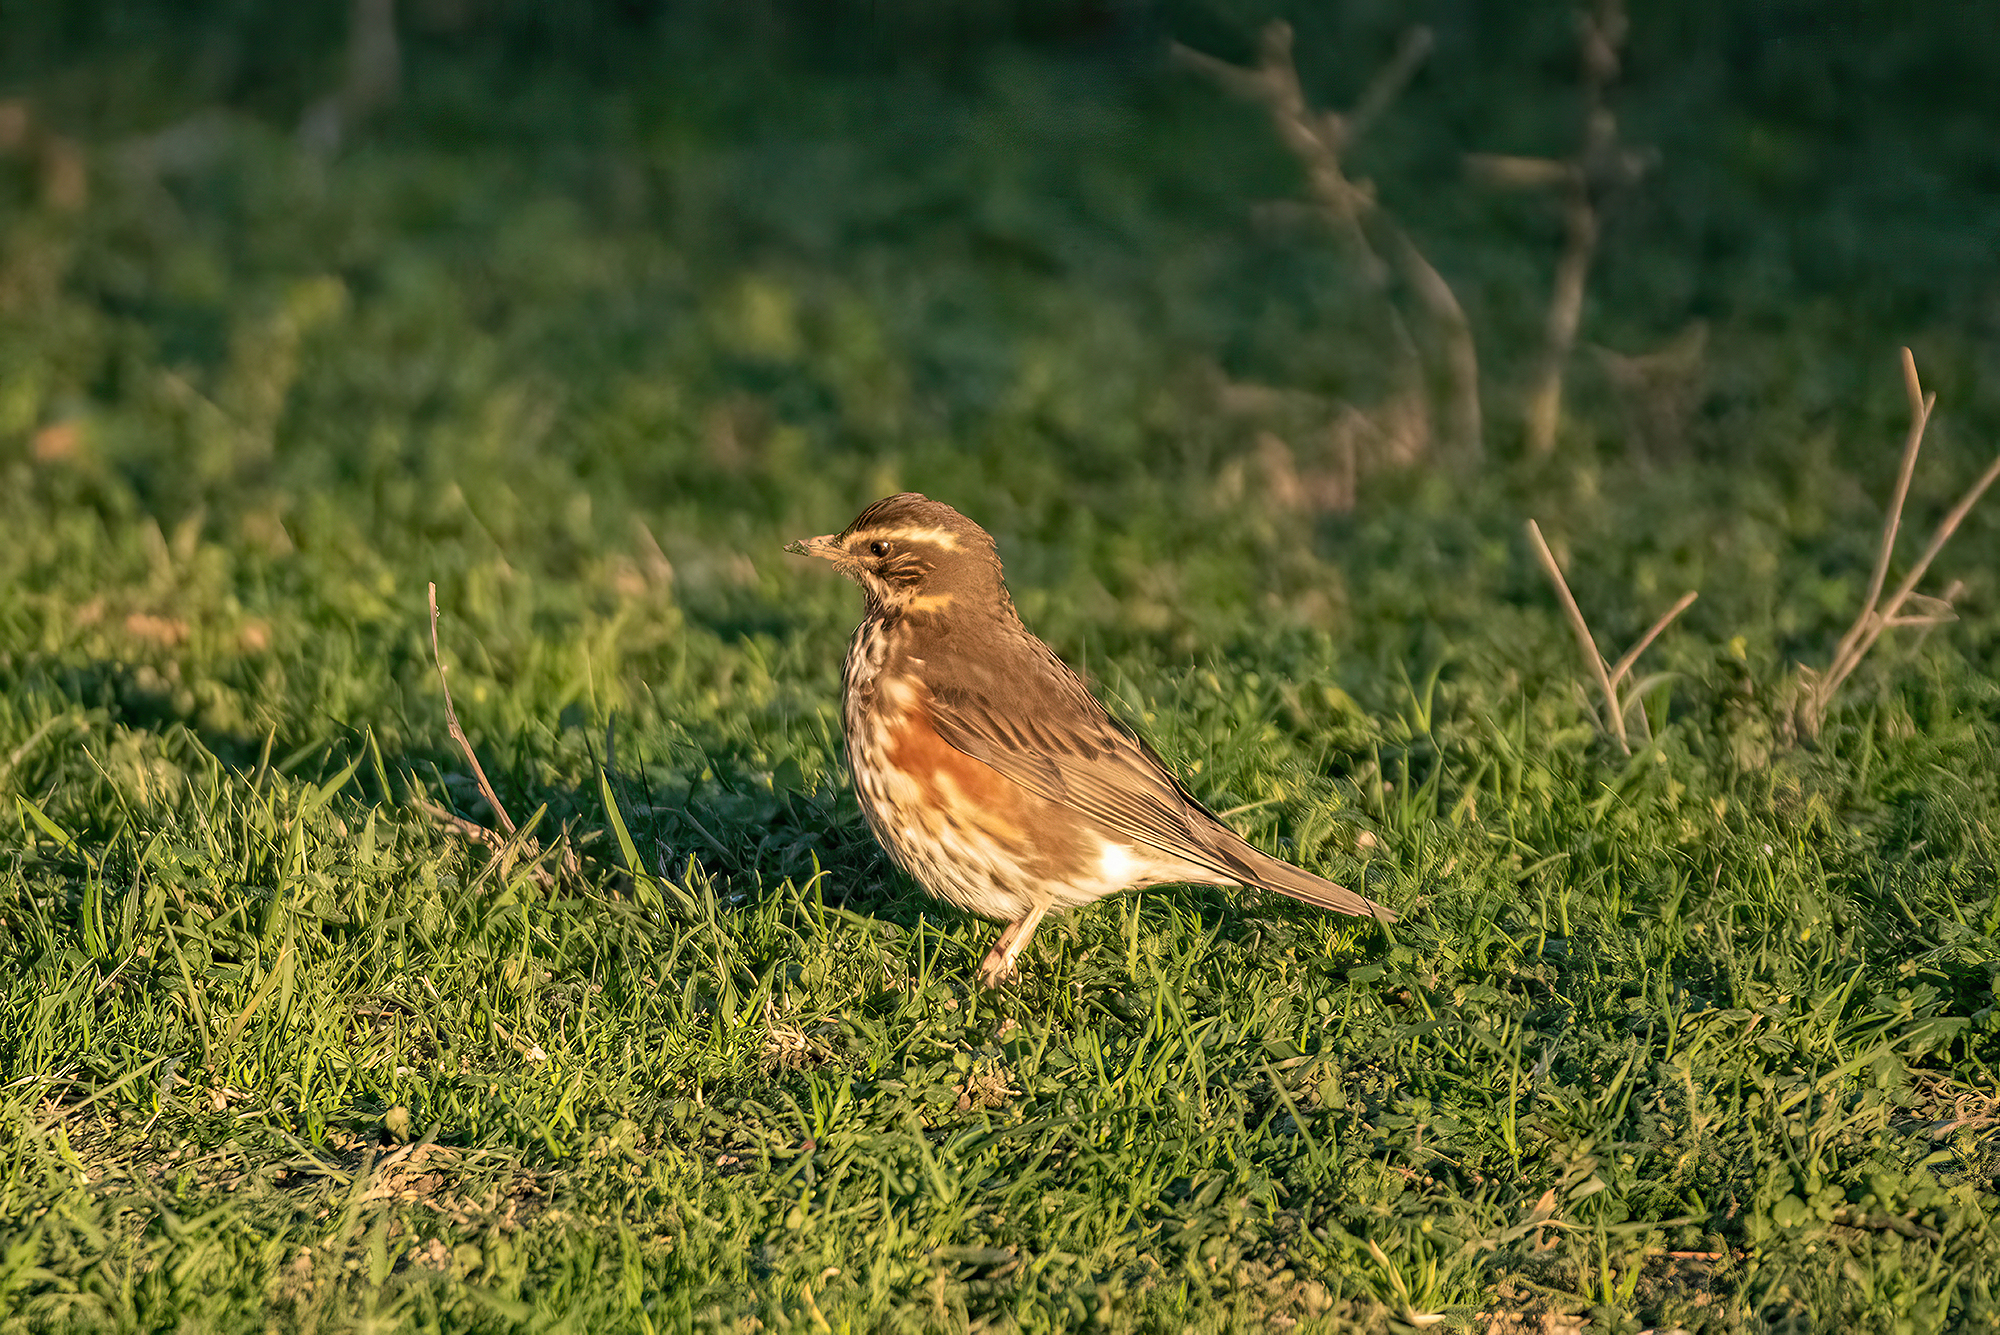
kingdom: Animalia
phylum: Chordata
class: Aves
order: Passeriformes
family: Turdidae
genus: Turdus
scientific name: Turdus iliacus
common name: Redwing
